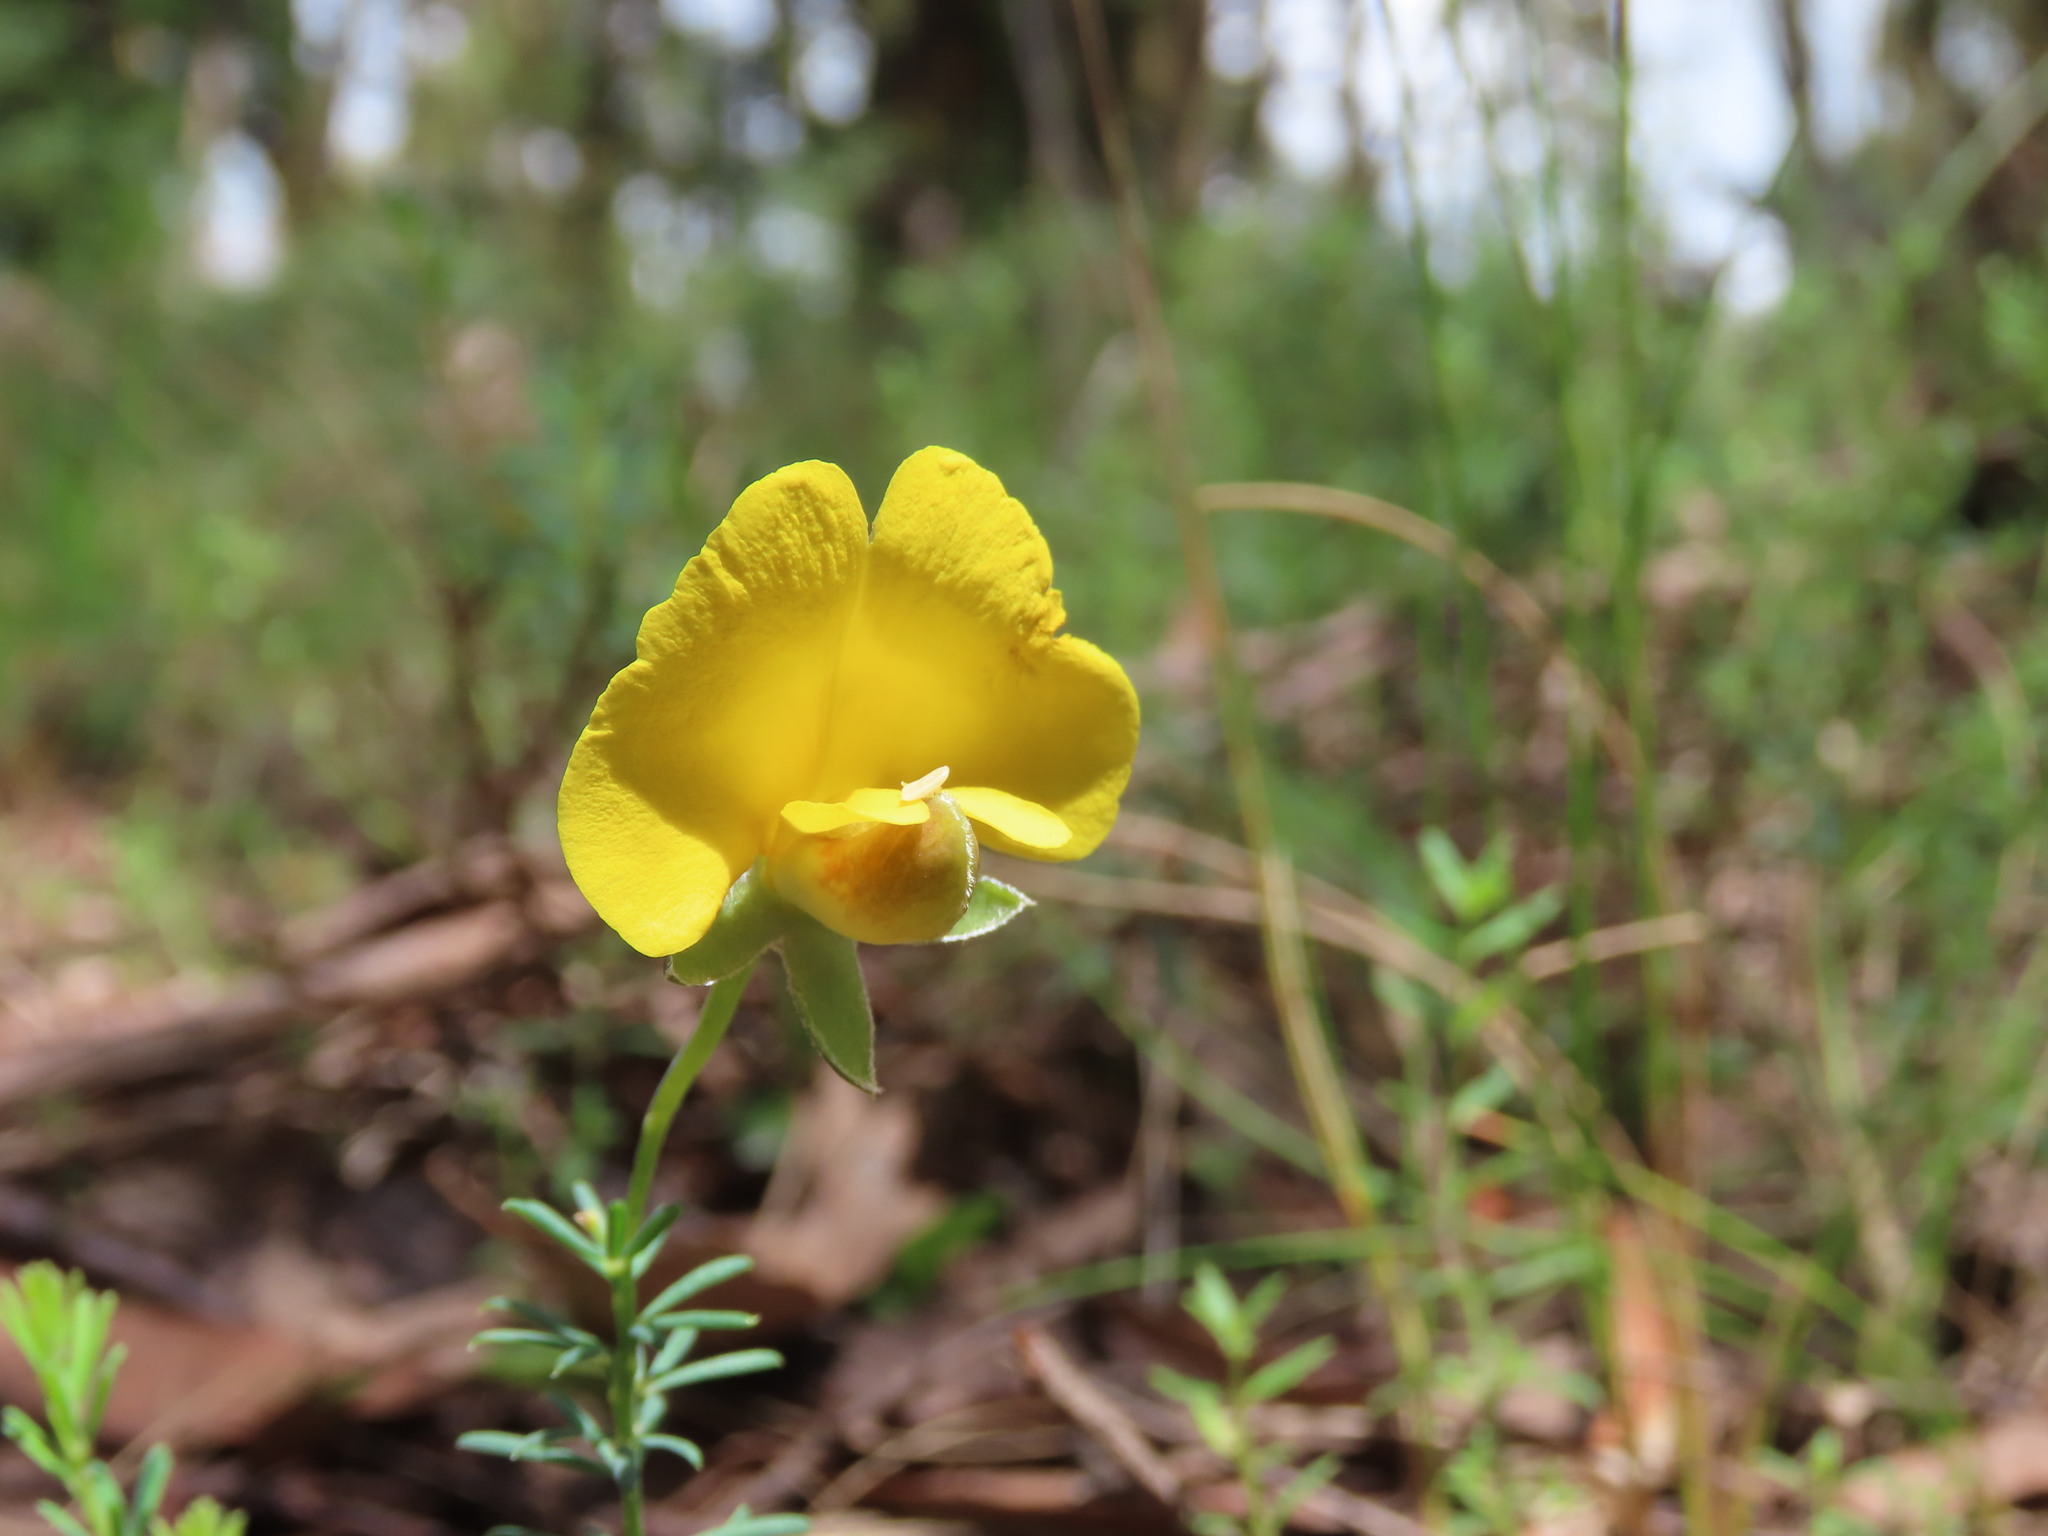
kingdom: Plantae
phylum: Tracheophyta
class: Magnoliopsida
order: Fabales
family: Fabaceae
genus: Gompholobium
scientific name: Gompholobium huegelii
